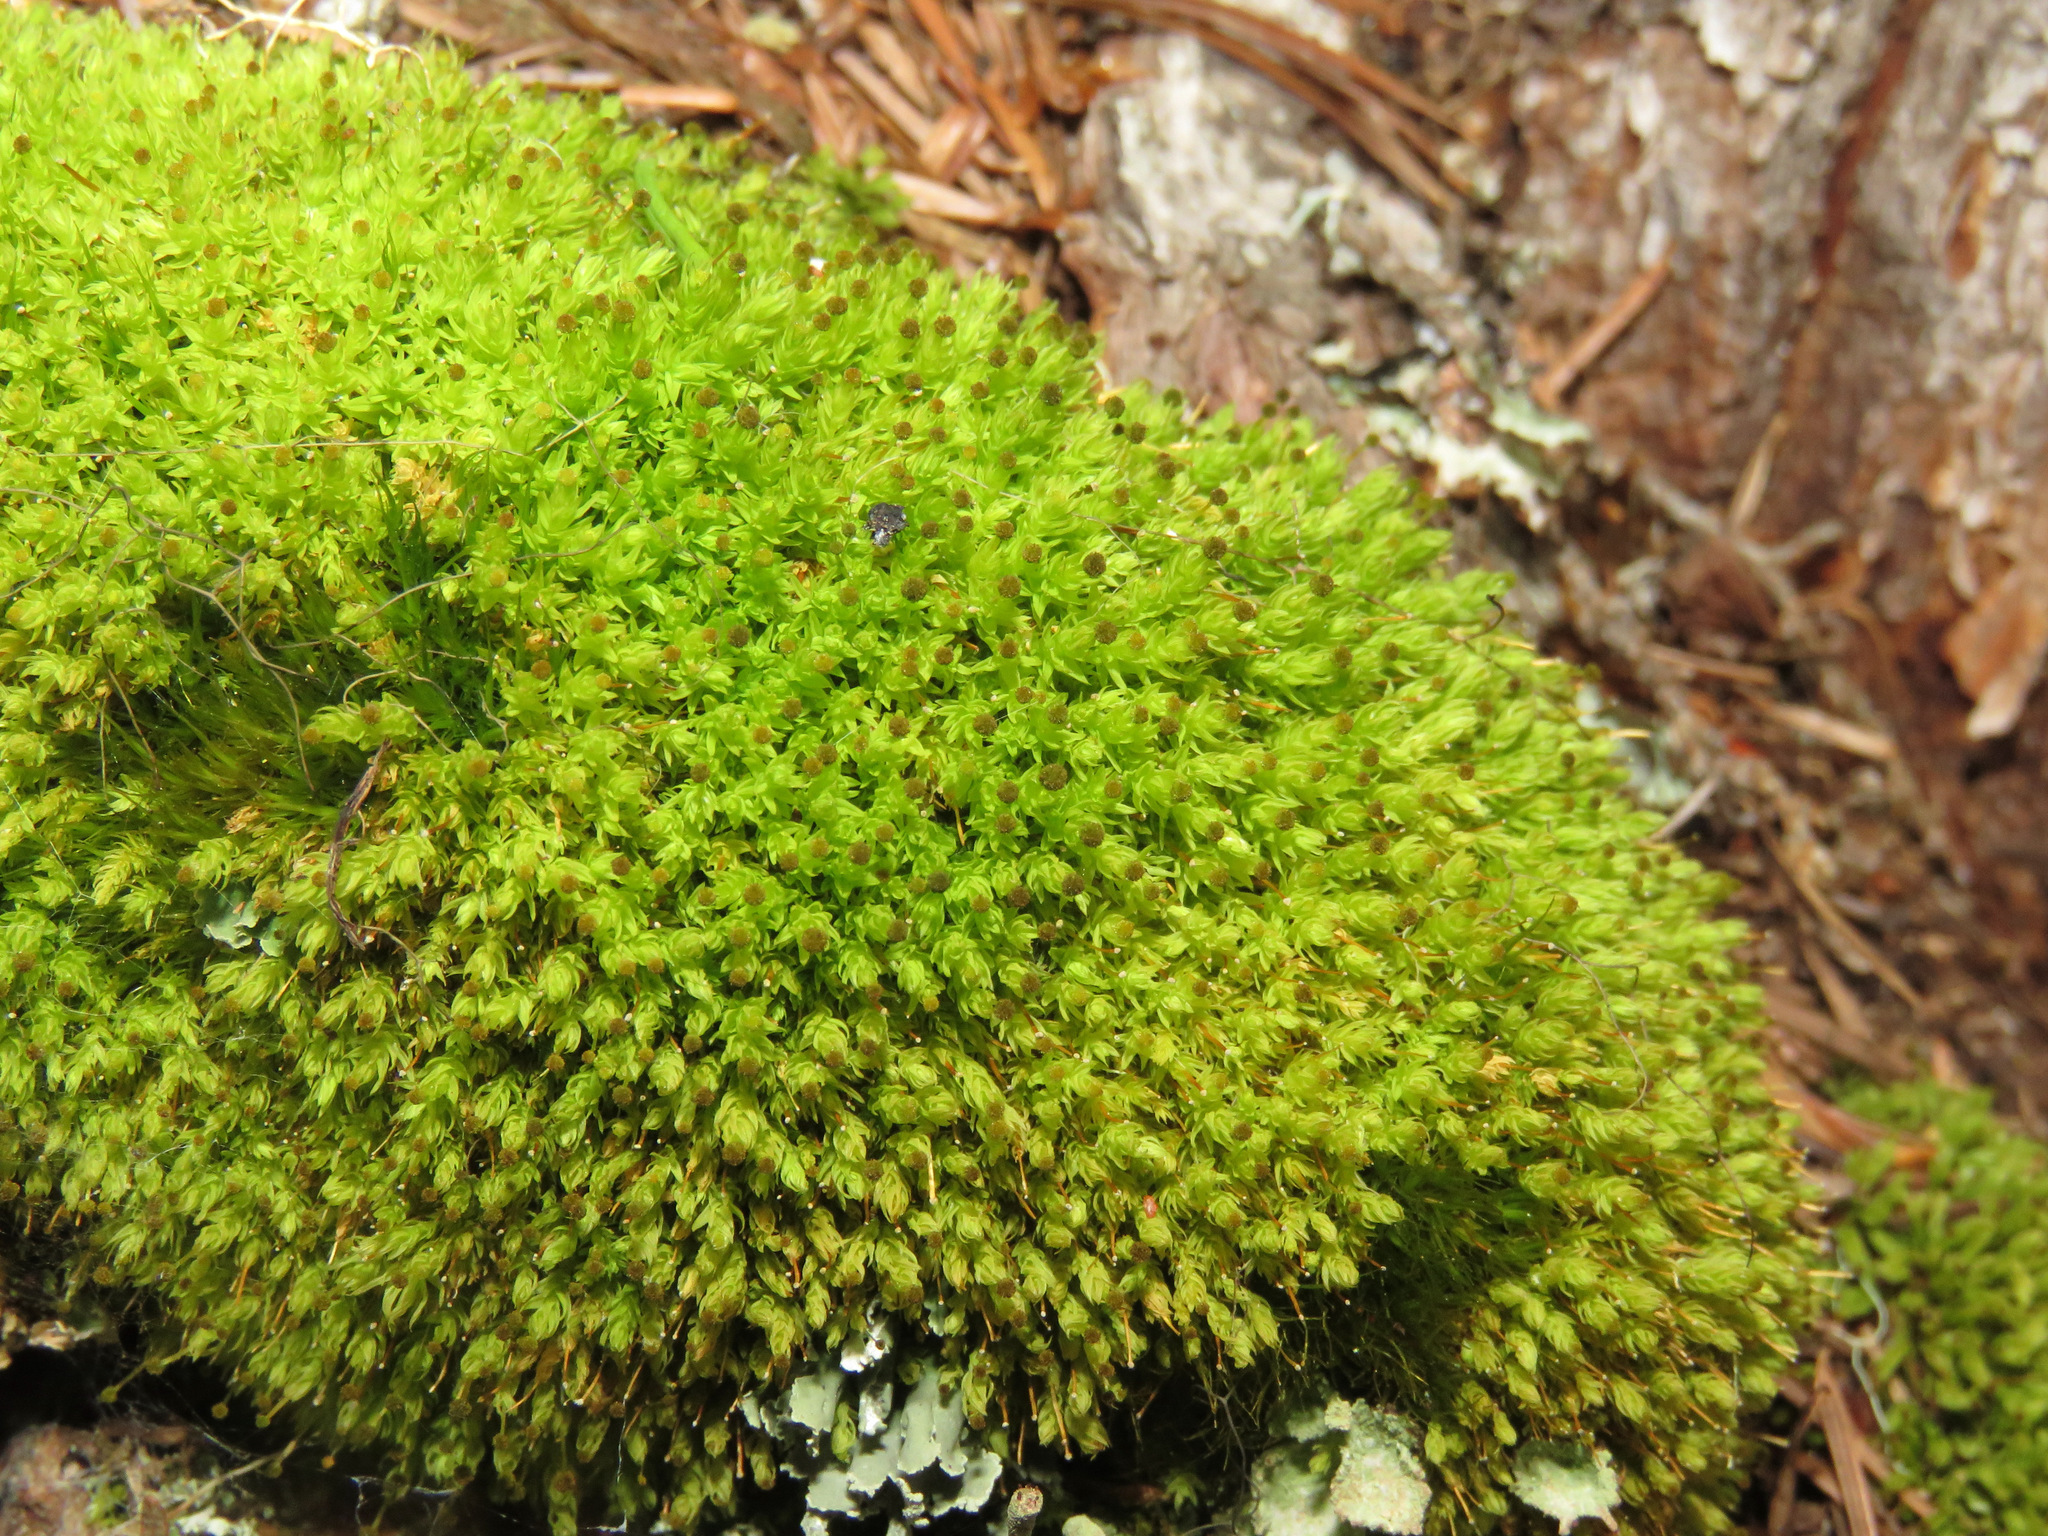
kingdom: Plantae
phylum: Bryophyta
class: Bryopsida
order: Aulacomniales
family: Aulacomniaceae
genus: Aulacomnium
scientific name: Aulacomnium androgynum
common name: Little groove moss
